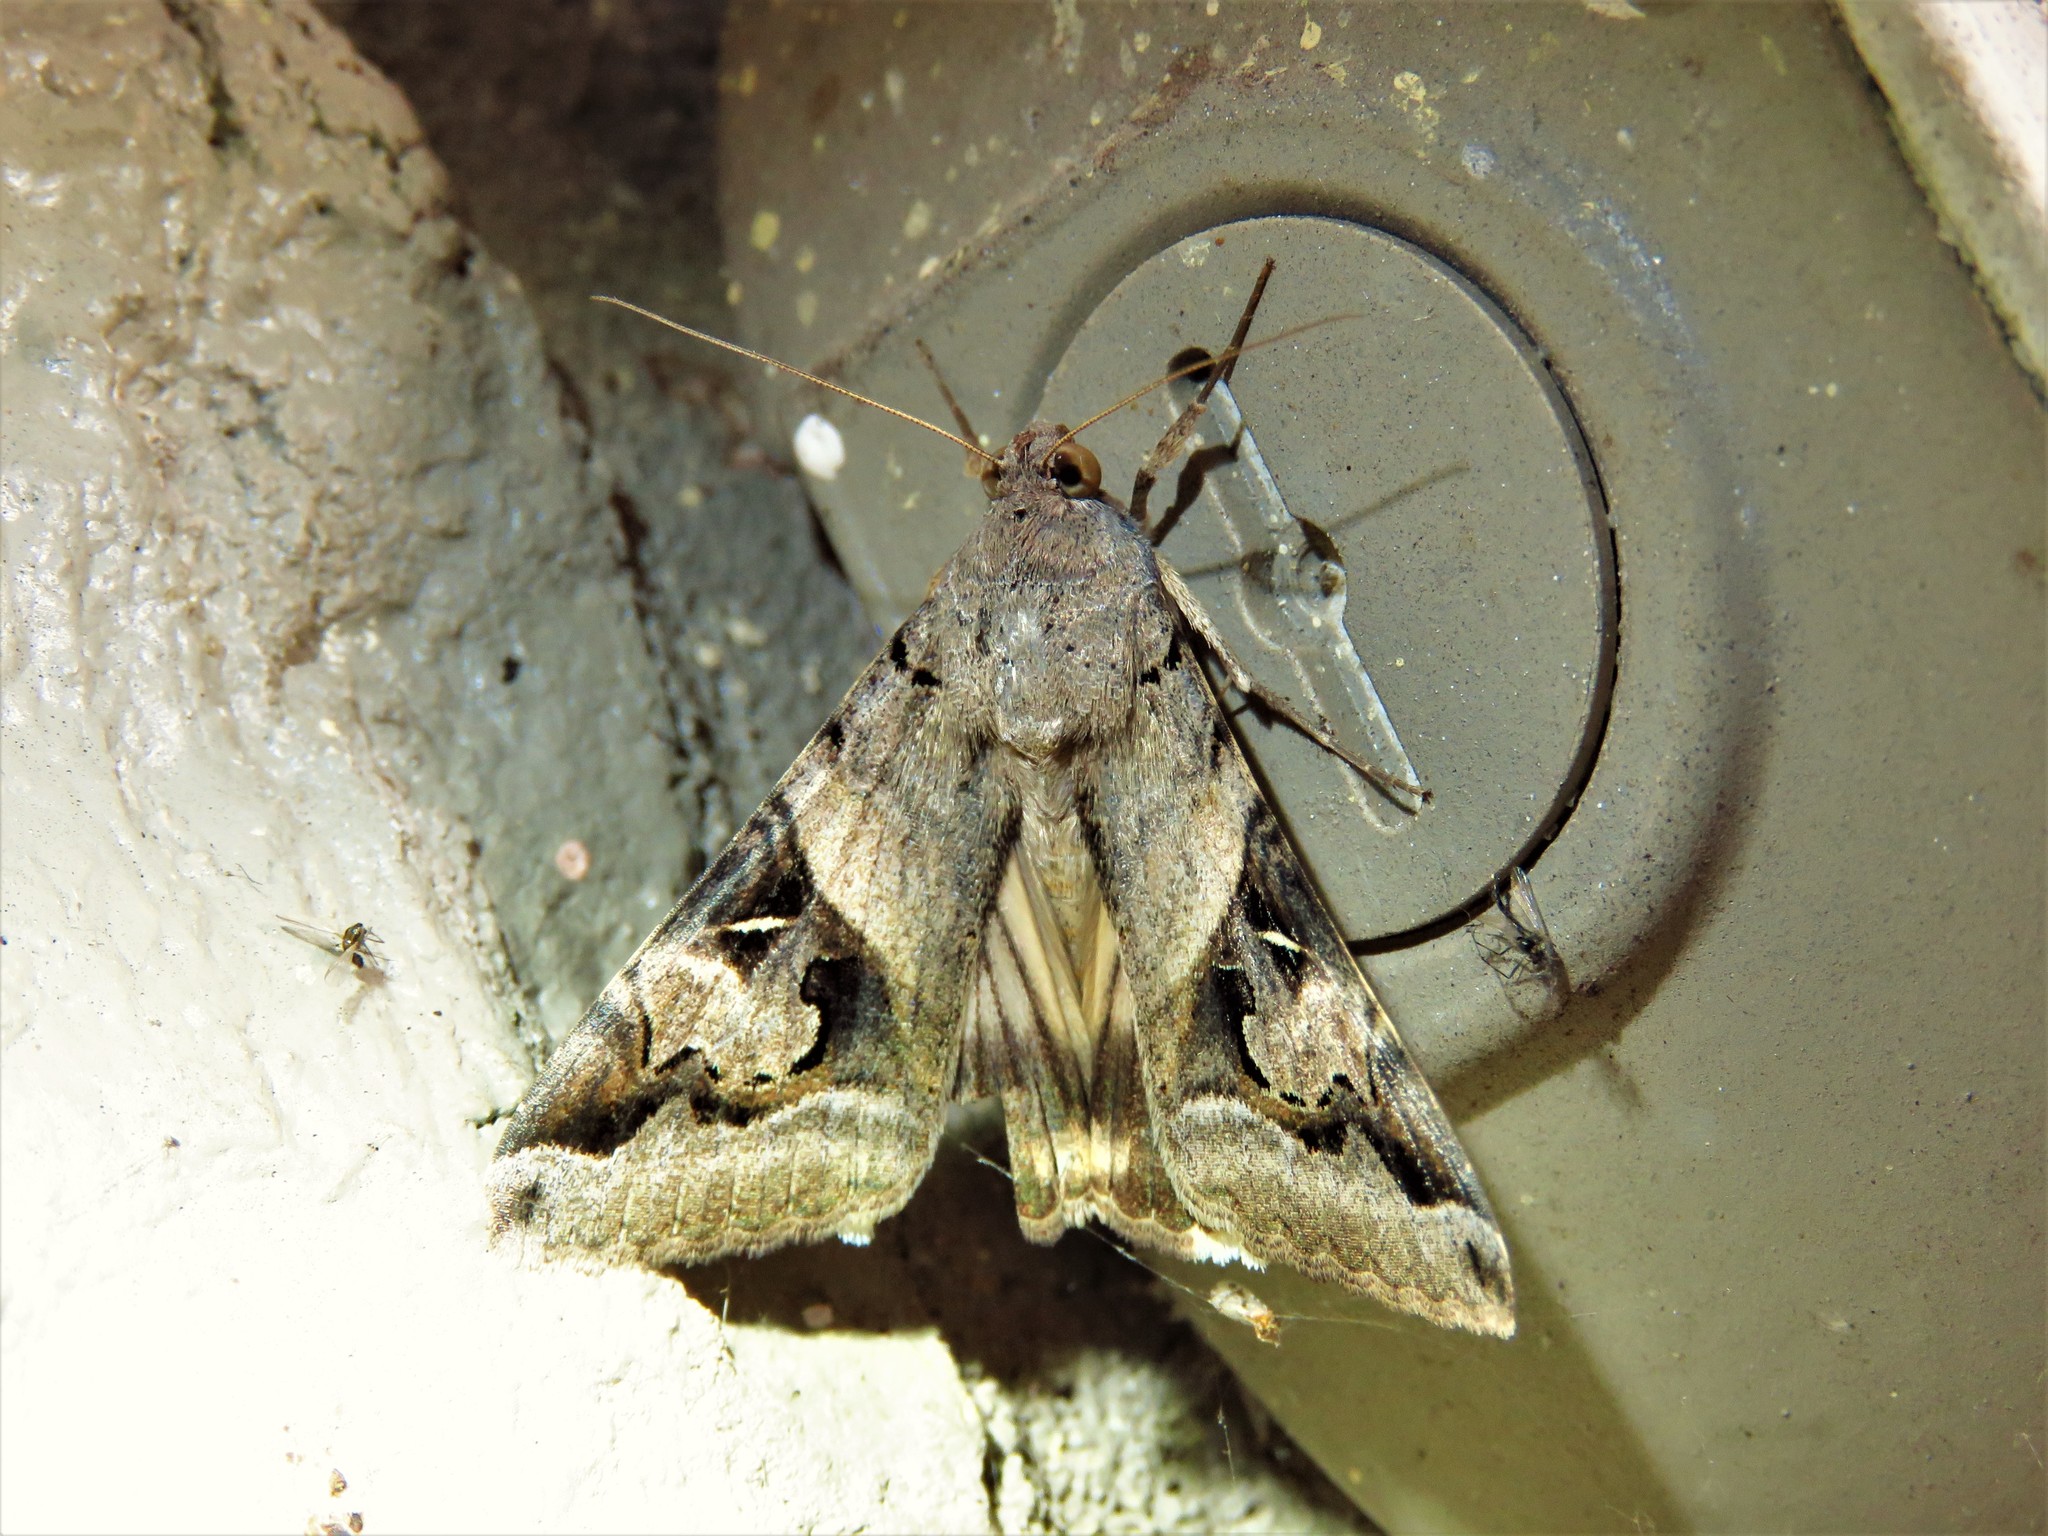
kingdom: Animalia
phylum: Arthropoda
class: Insecta
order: Lepidoptera
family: Erebidae
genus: Melipotis
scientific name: Melipotis indomita
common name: Moth
